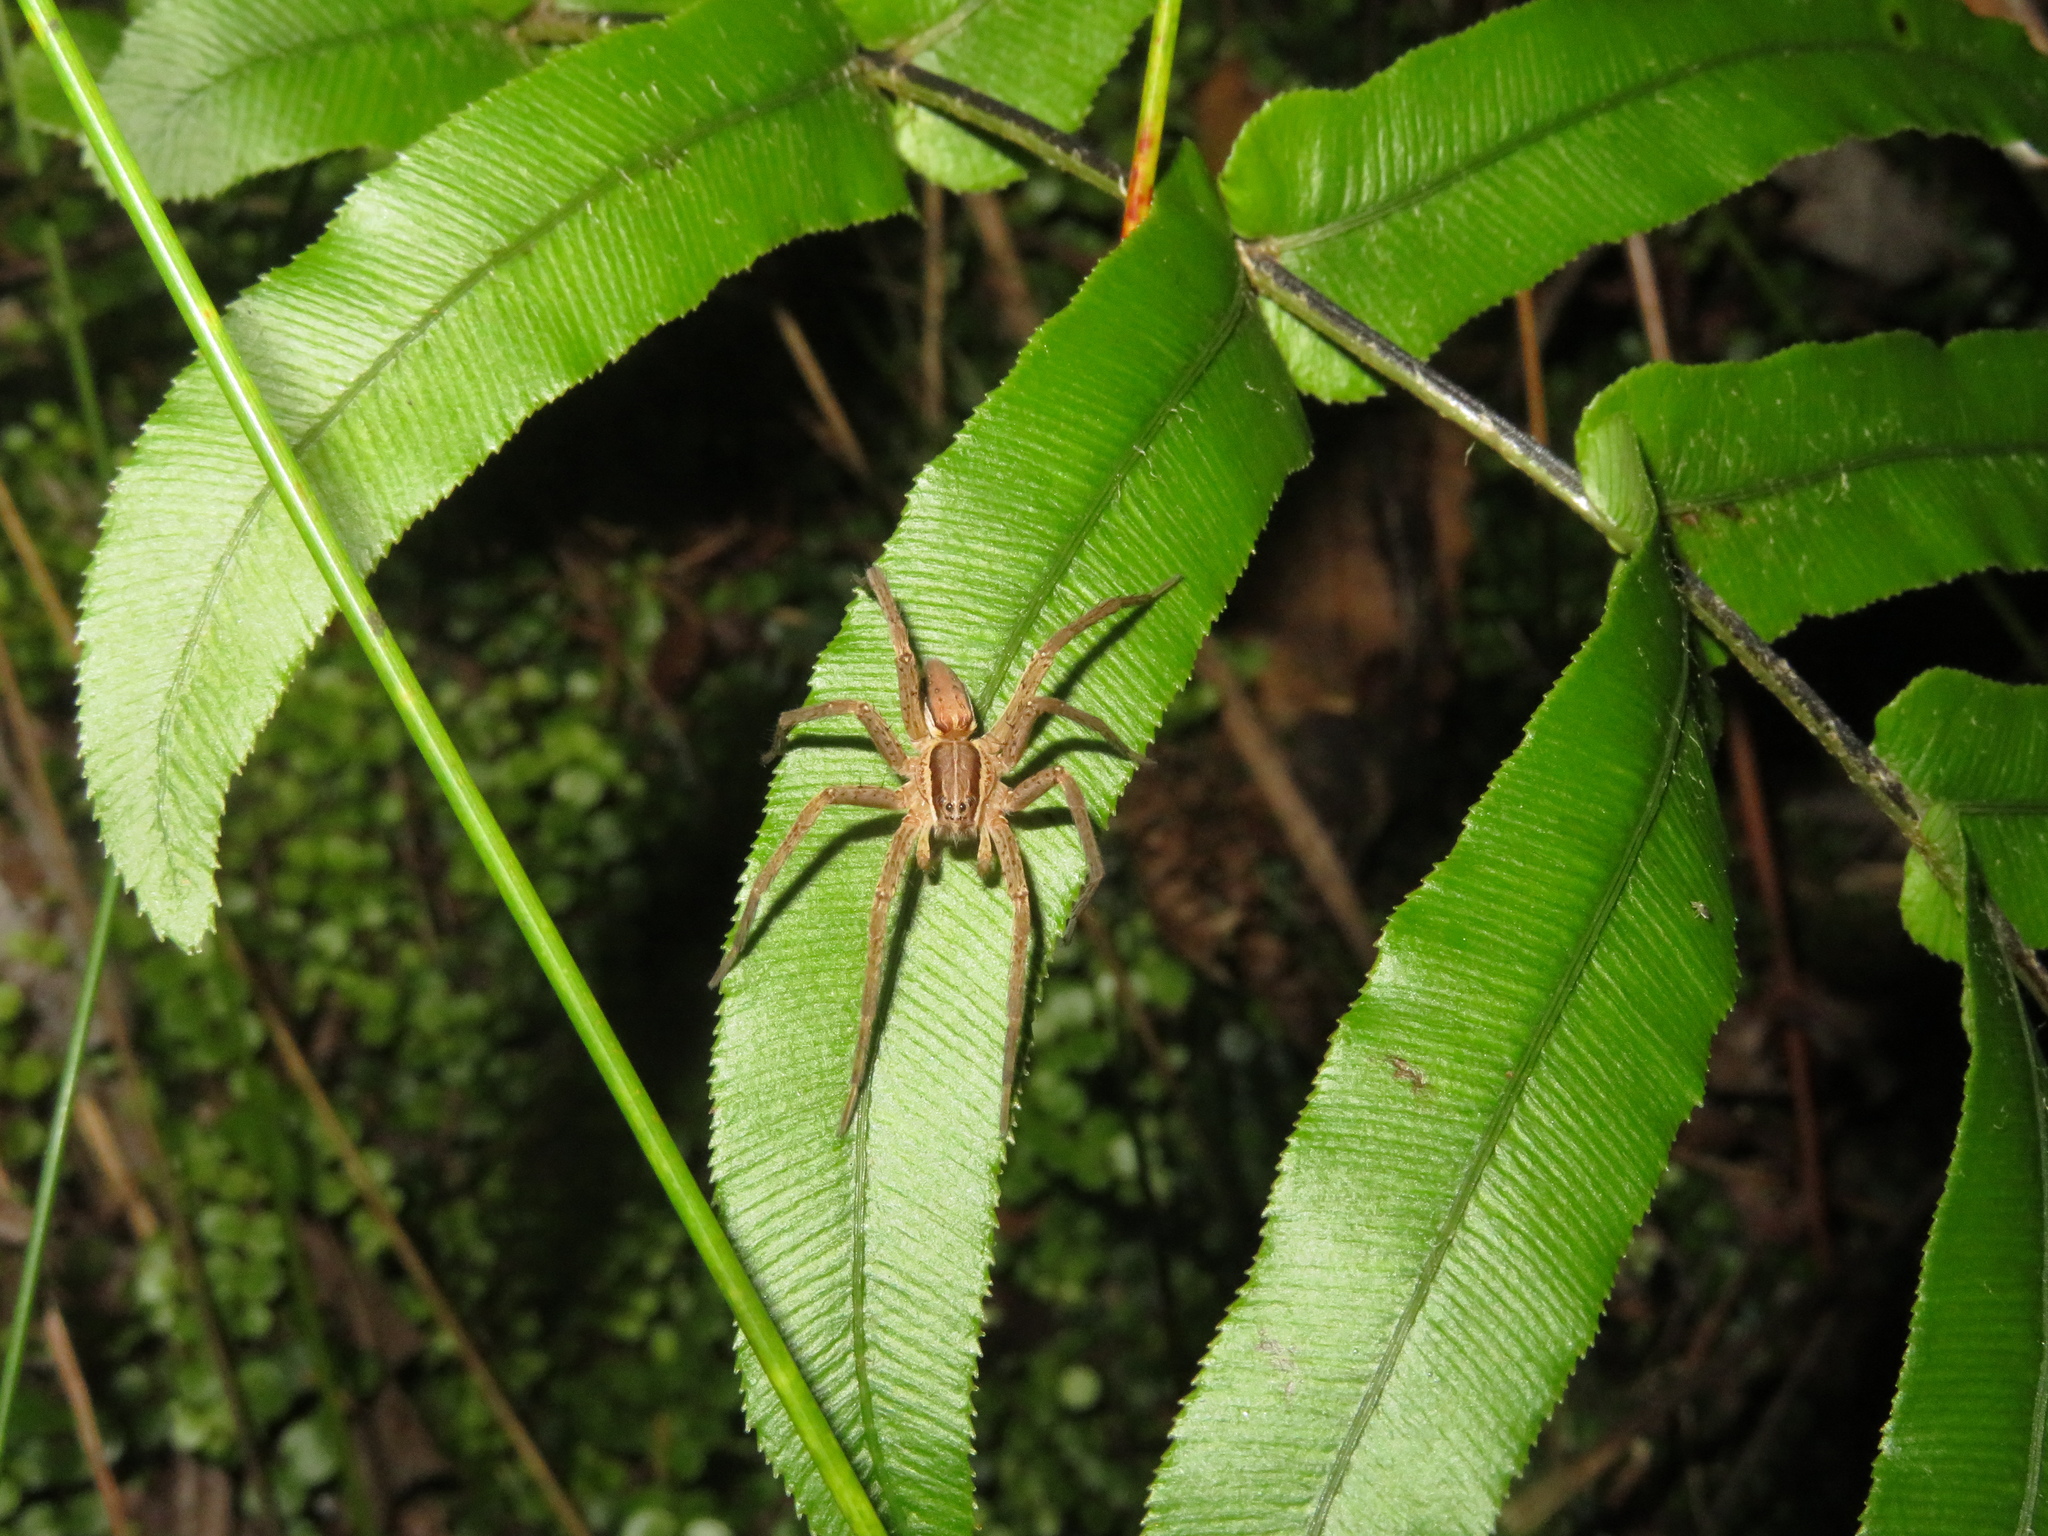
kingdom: Animalia
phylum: Arthropoda
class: Arachnida
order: Araneae
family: Pisauridae
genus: Dolomedes
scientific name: Dolomedes minor
